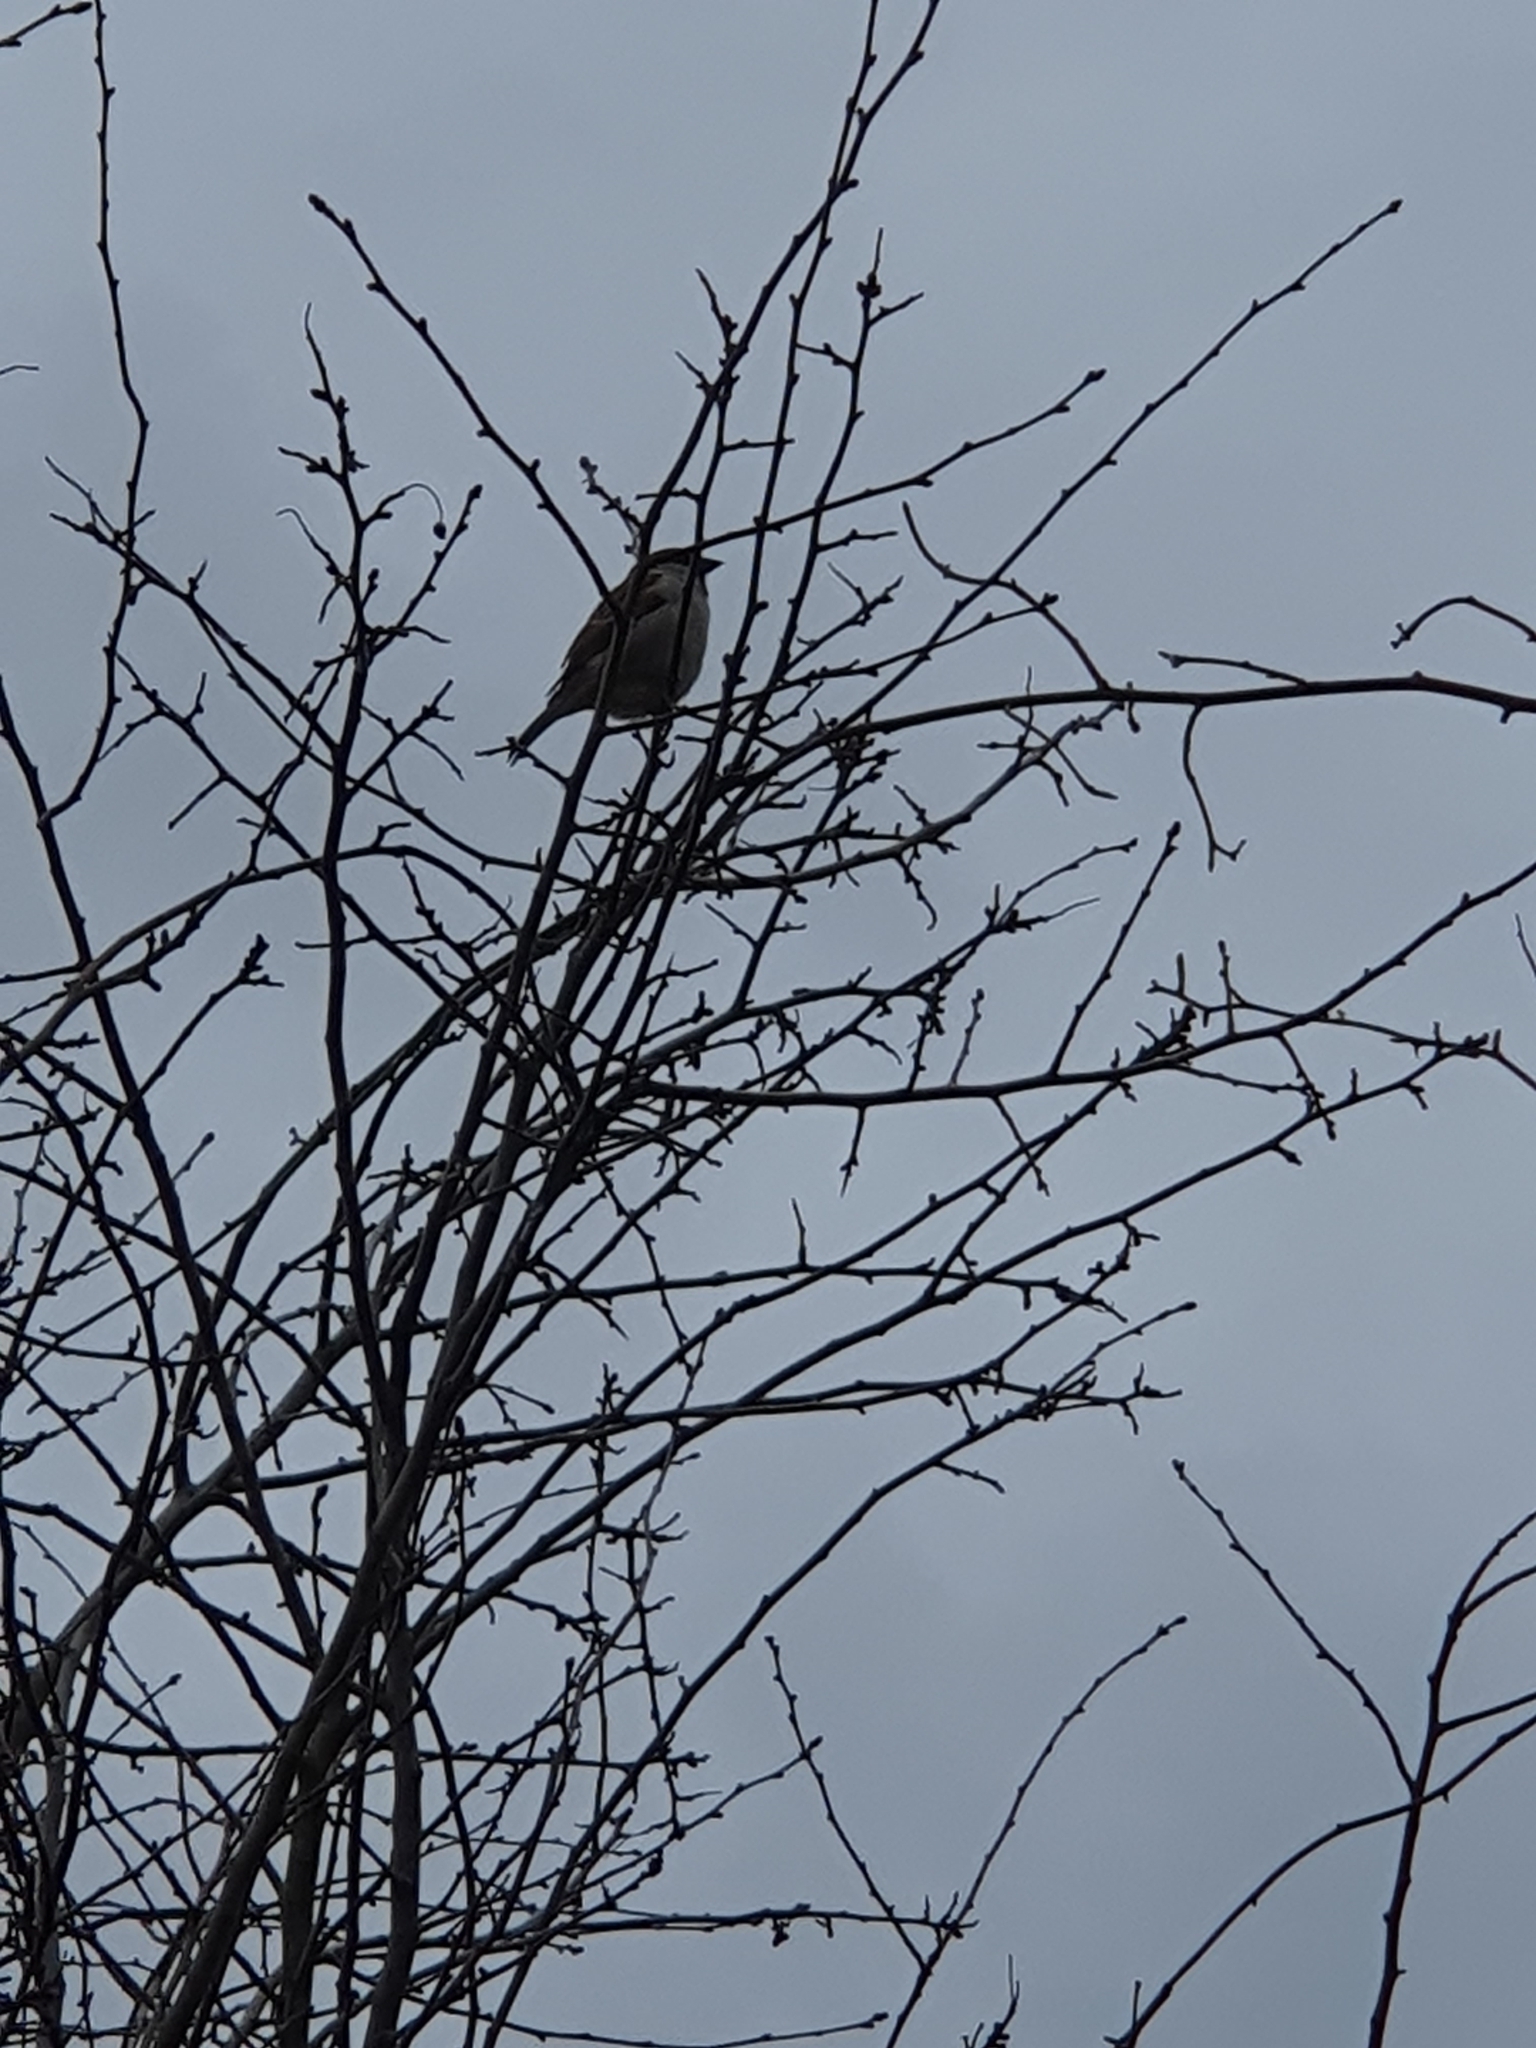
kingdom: Animalia
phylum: Chordata
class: Aves
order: Passeriformes
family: Passeridae
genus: Passer
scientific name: Passer domesticus
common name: House sparrow
